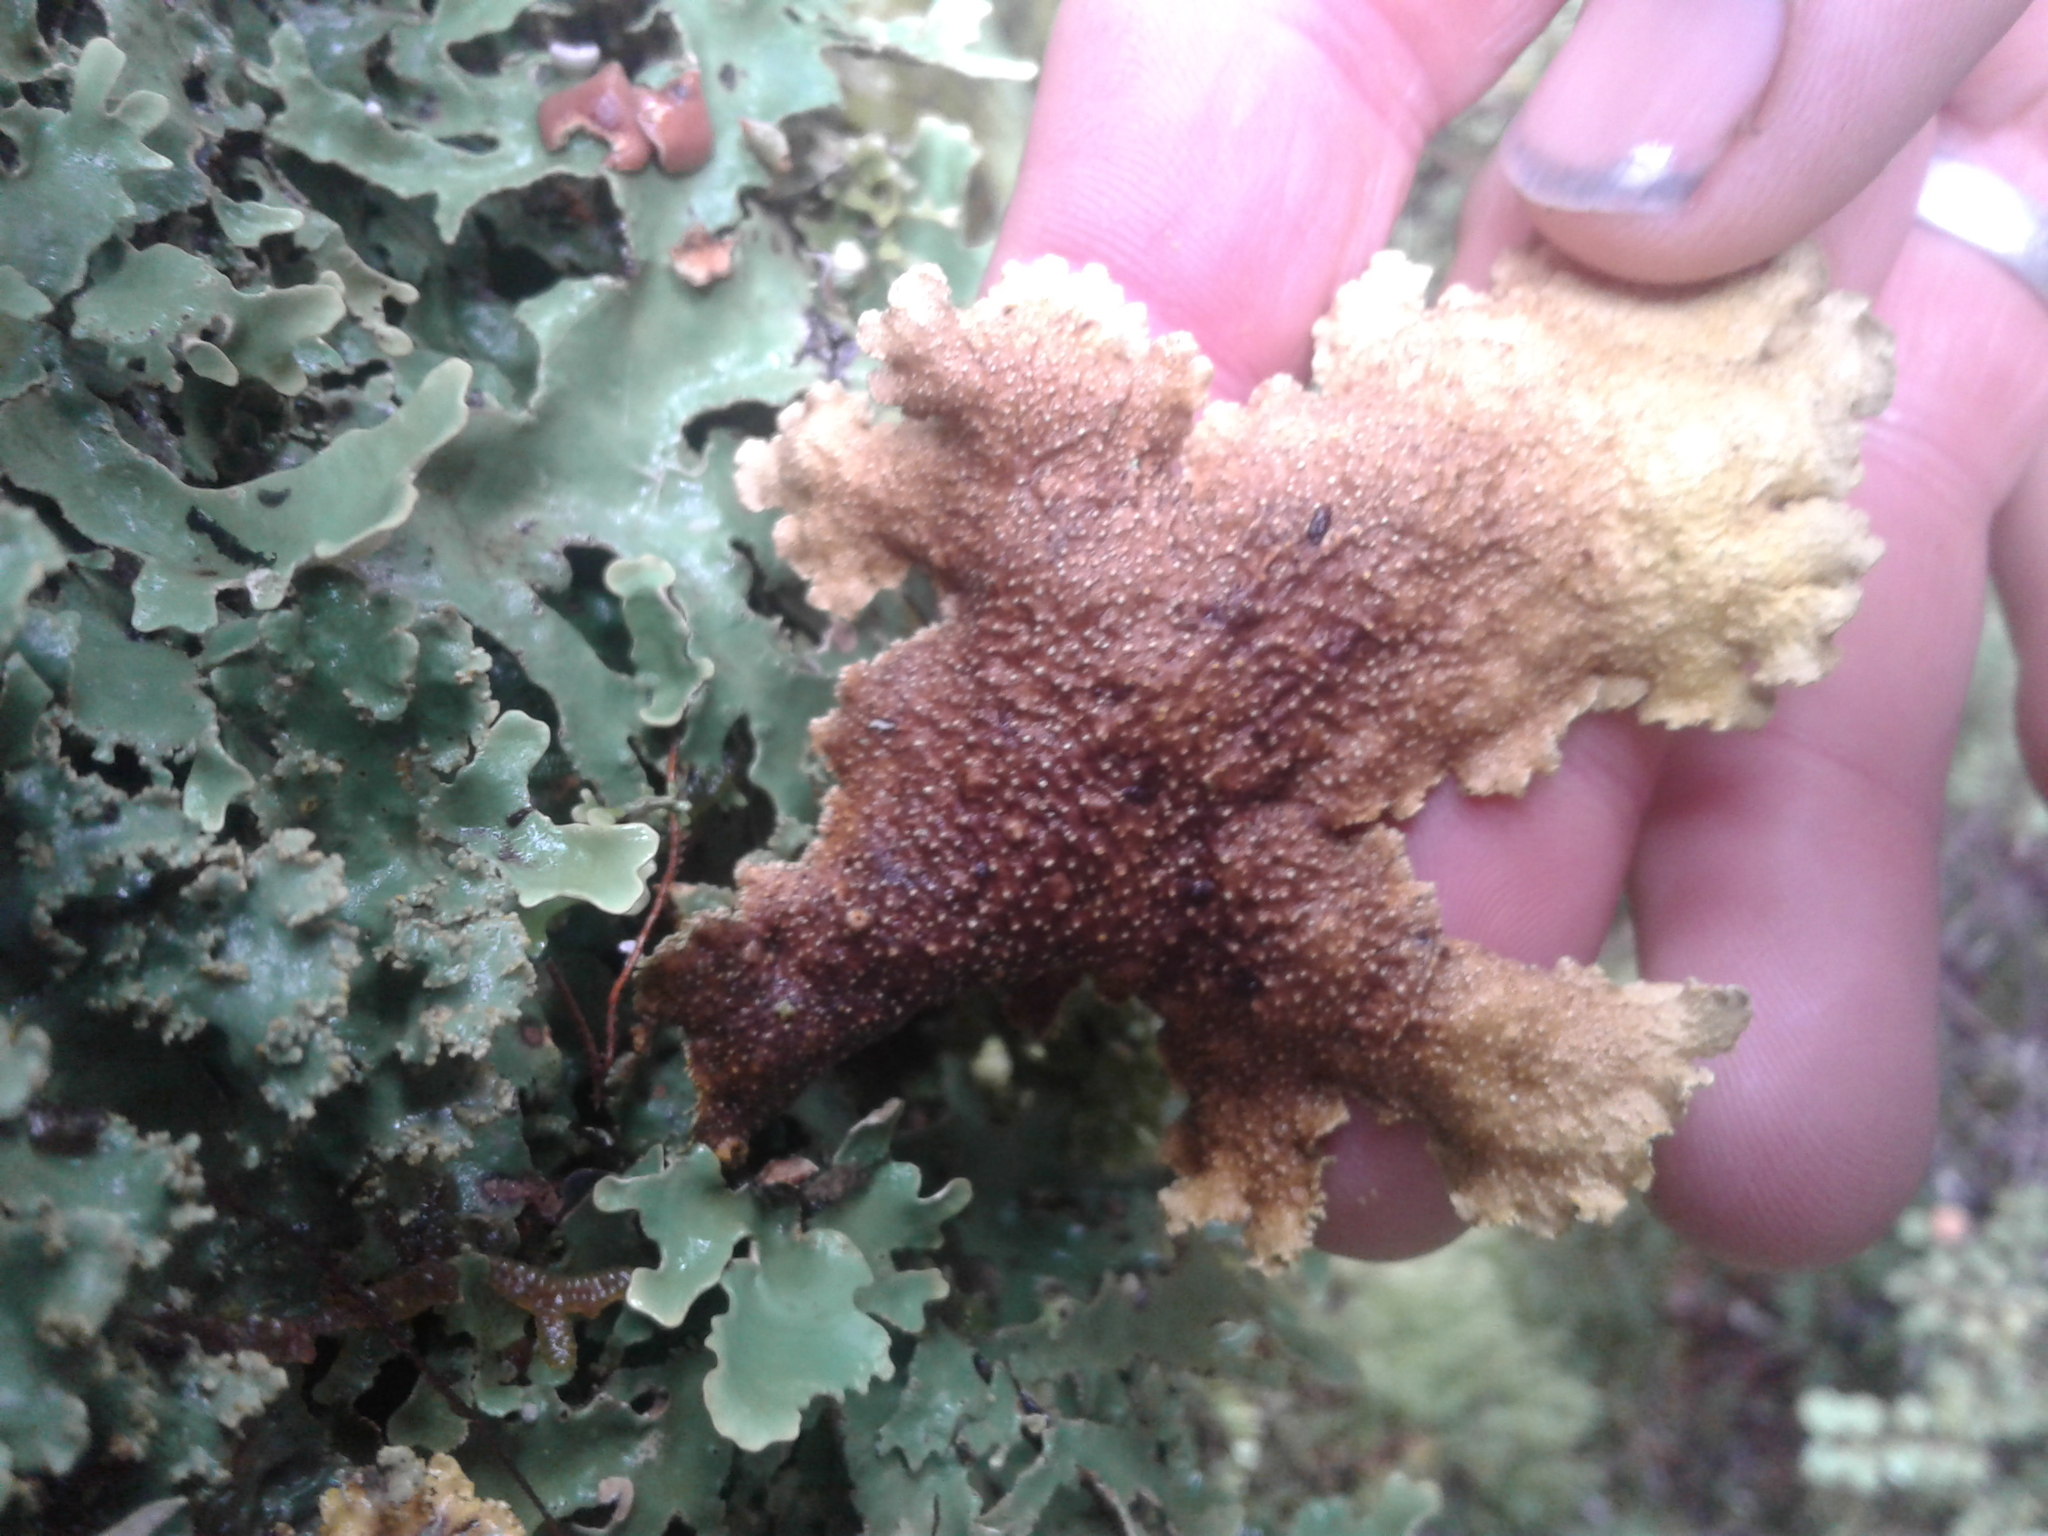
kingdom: Fungi
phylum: Ascomycota
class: Lecanoromycetes
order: Peltigerales
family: Lobariaceae
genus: Pseudocyphellaria
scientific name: Pseudocyphellaria glabra
